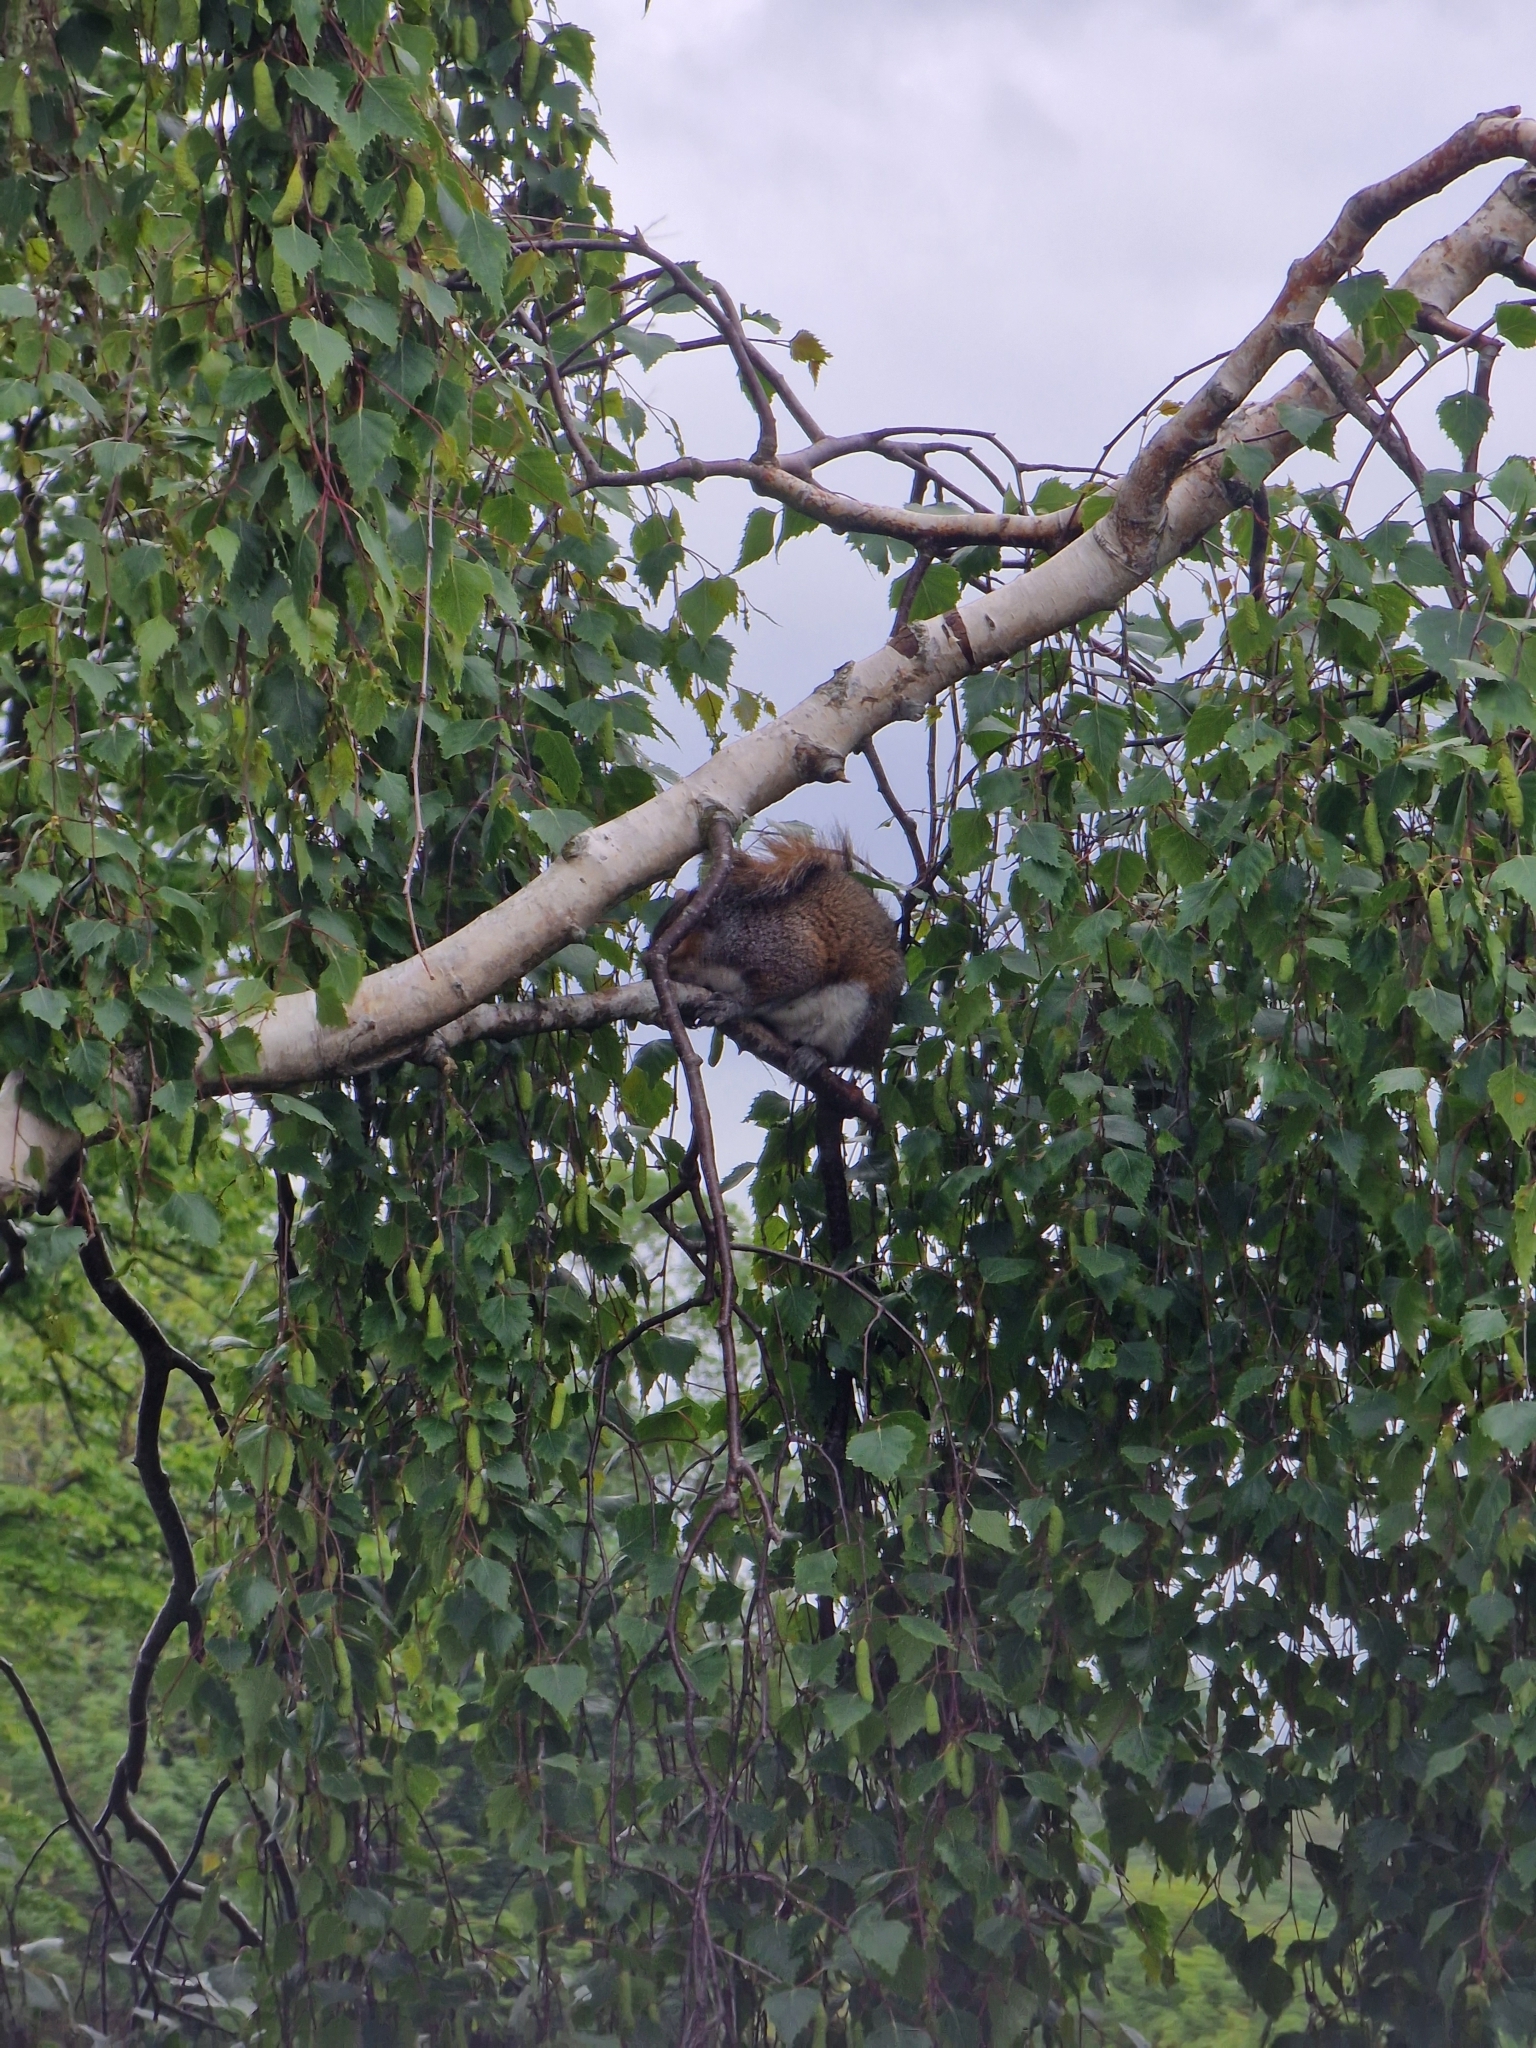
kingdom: Animalia
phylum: Chordata
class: Mammalia
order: Rodentia
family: Sciuridae
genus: Sciurus
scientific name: Sciurus carolinensis
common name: Eastern gray squirrel
